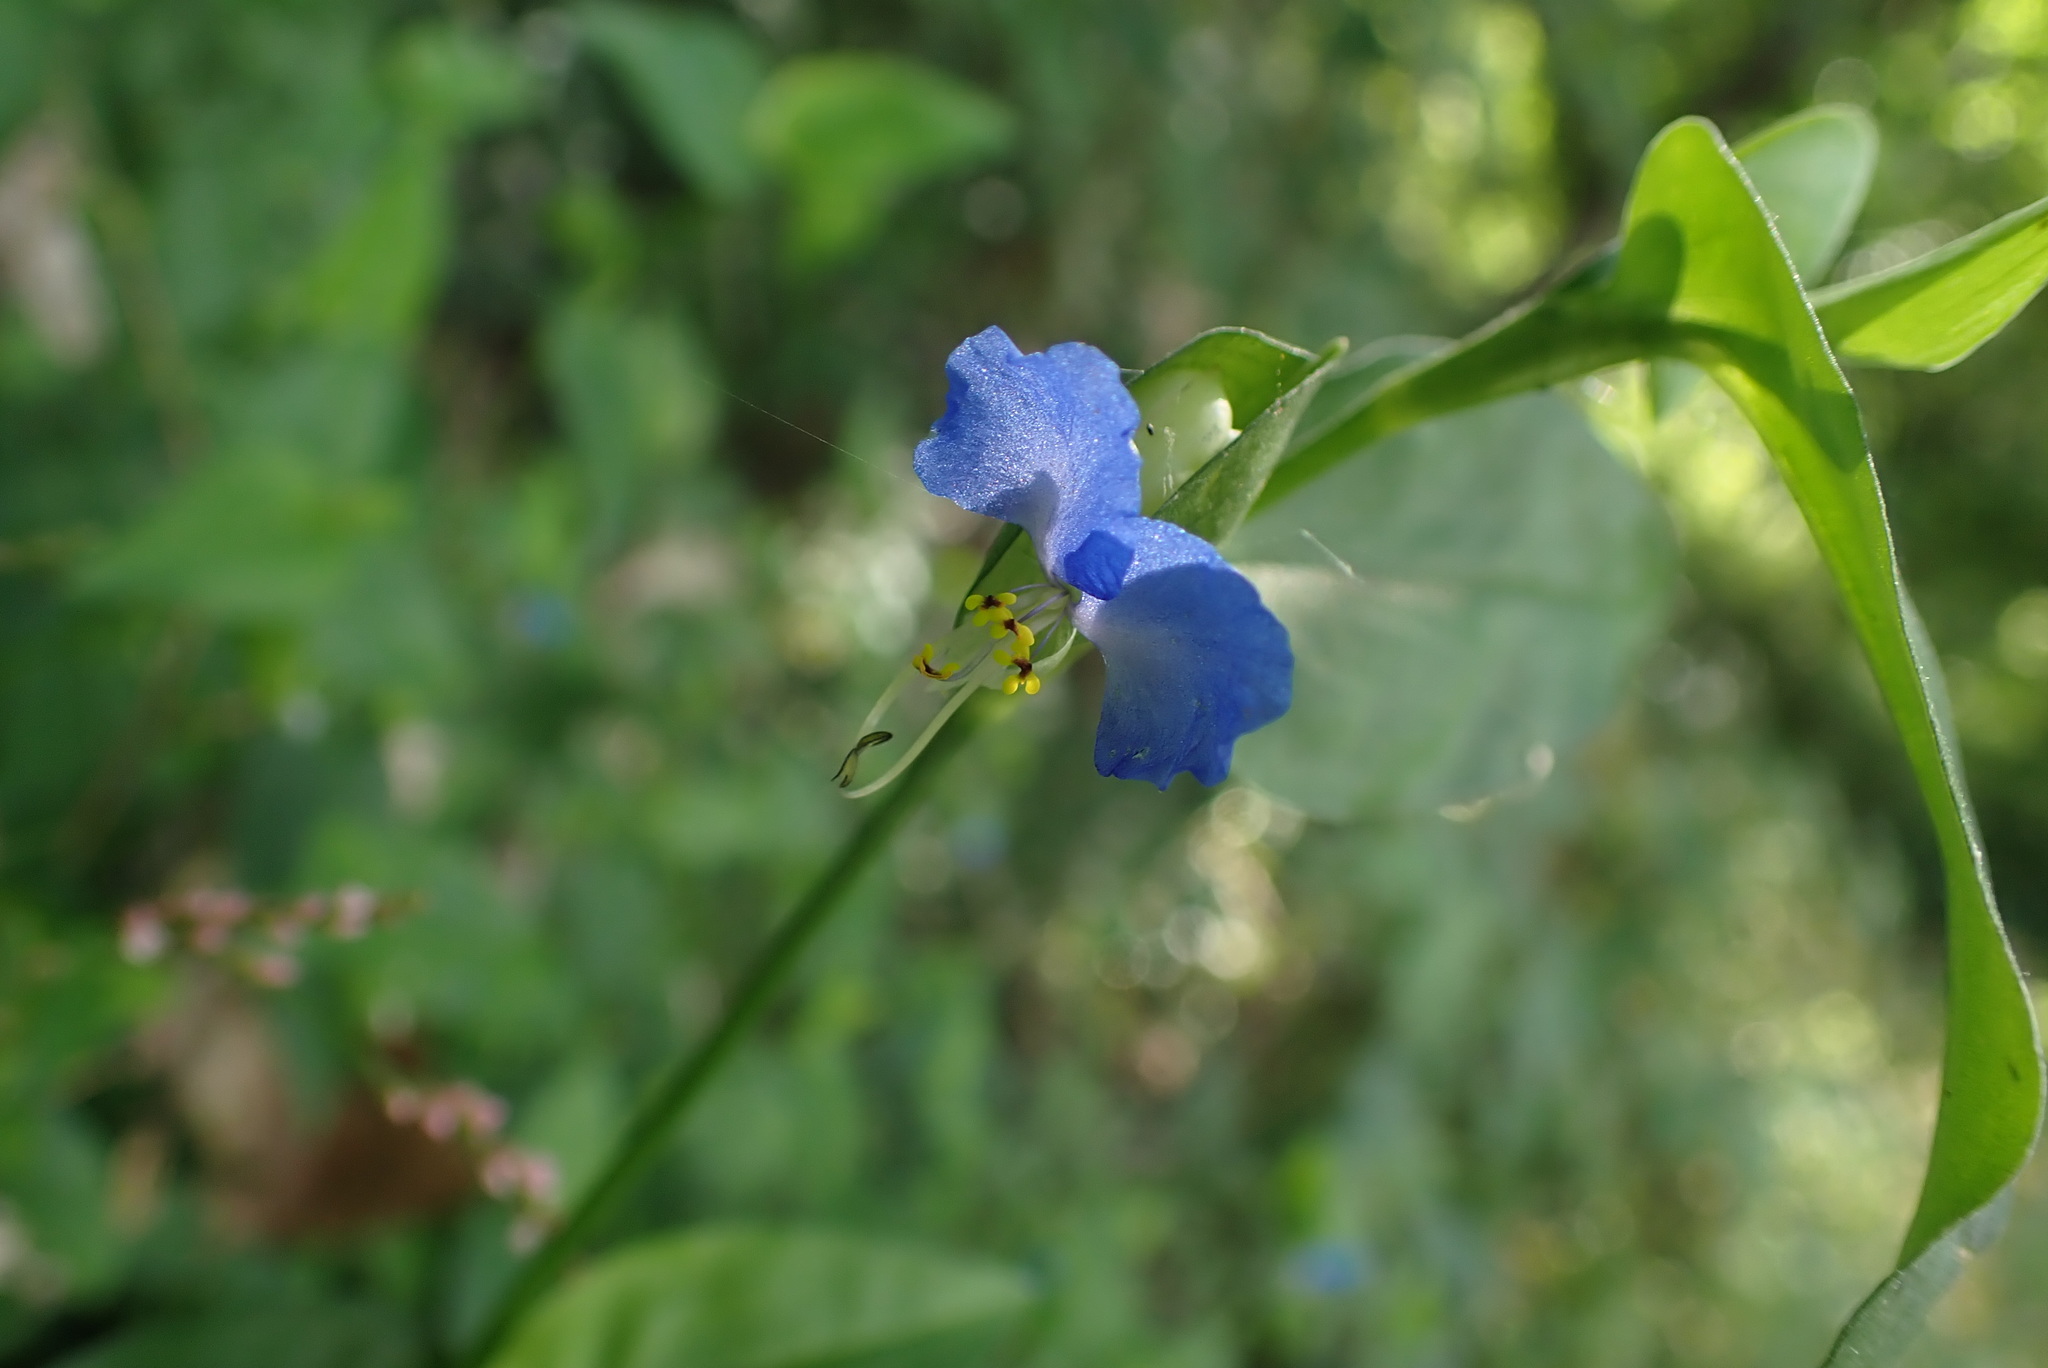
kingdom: Plantae
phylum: Tracheophyta
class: Liliopsida
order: Commelinales
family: Commelinaceae
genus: Commelina
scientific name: Commelina communis
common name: Asiatic dayflower
